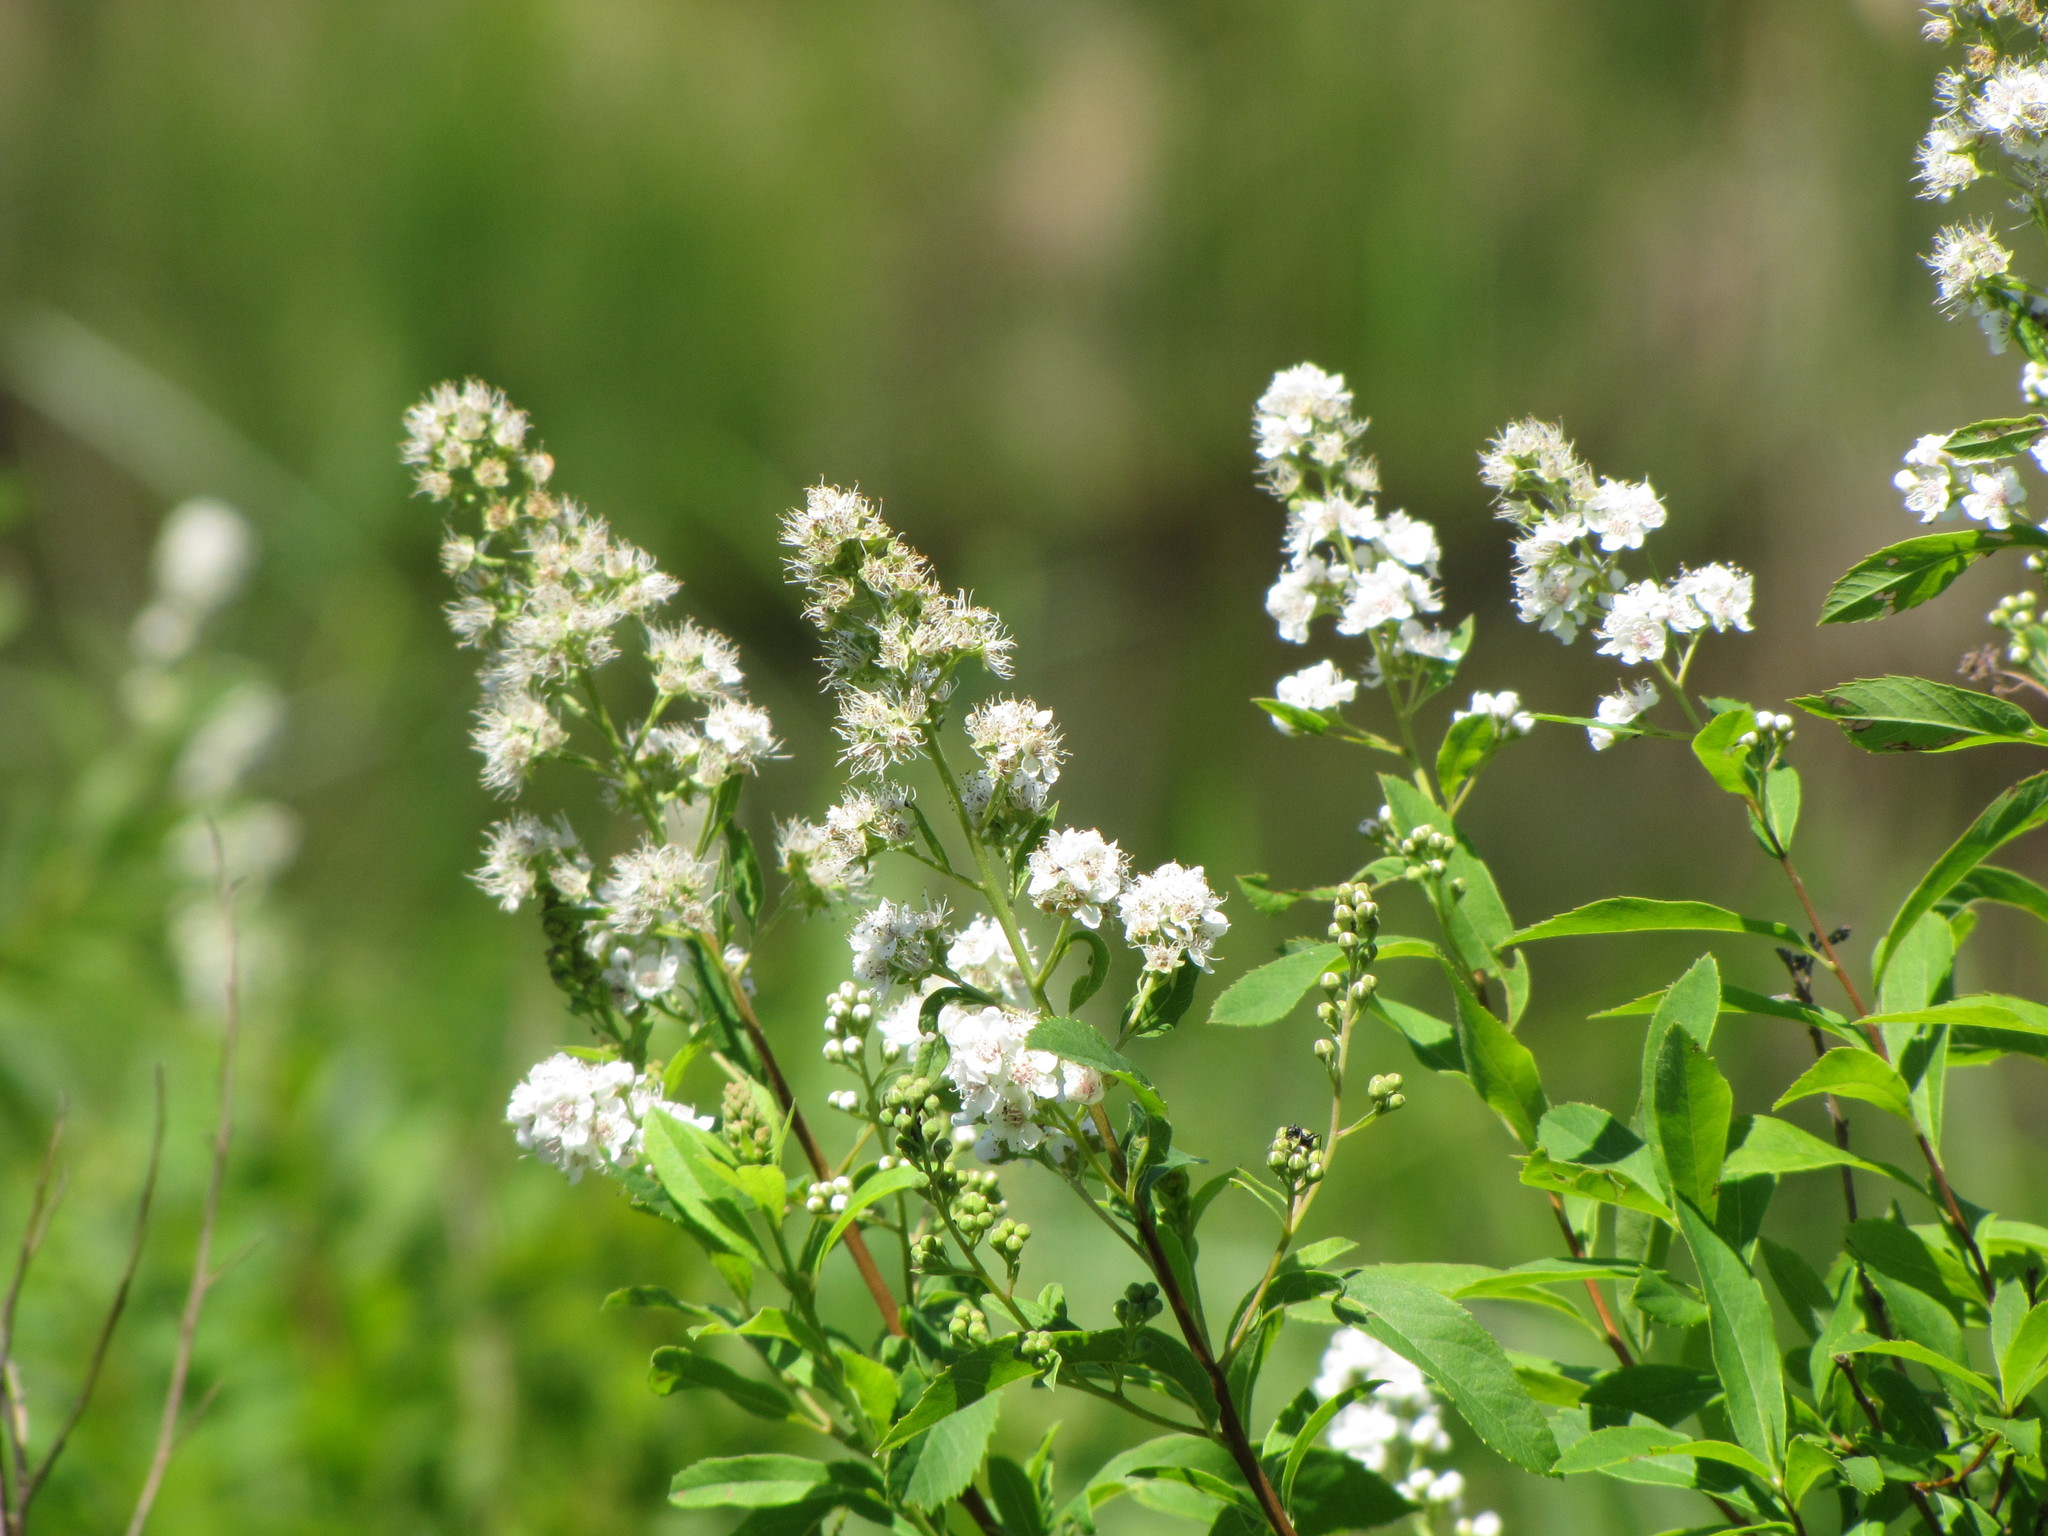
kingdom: Plantae
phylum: Tracheophyta
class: Magnoliopsida
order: Rosales
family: Rosaceae
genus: Spiraea
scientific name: Spiraea alba
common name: Pale bridewort
